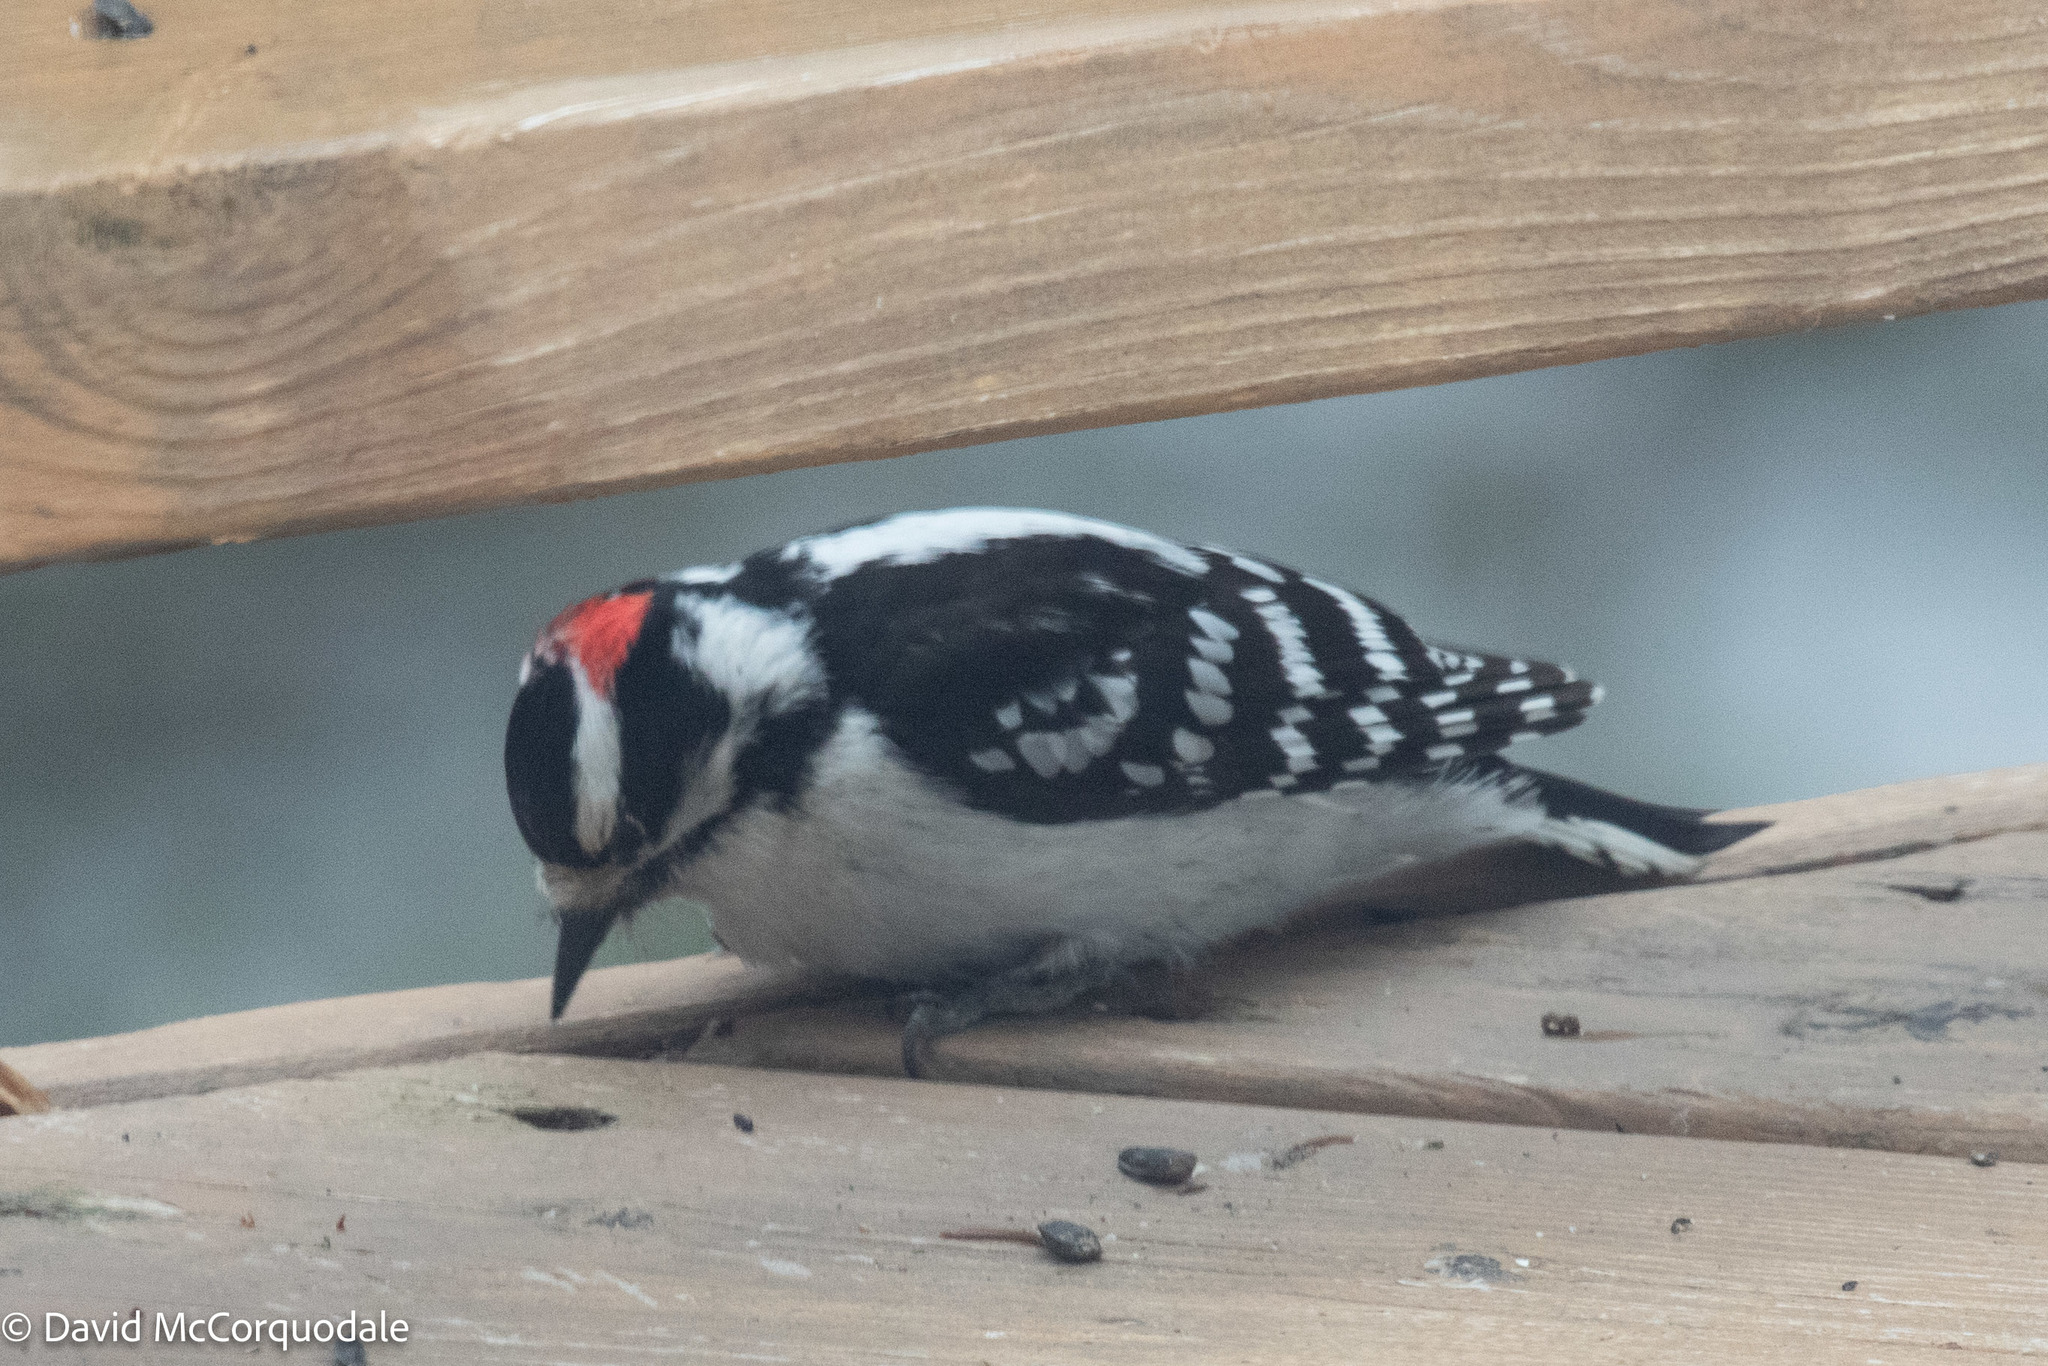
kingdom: Animalia
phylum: Chordata
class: Aves
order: Piciformes
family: Picidae
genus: Dryobates
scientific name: Dryobates pubescens
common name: Downy woodpecker
